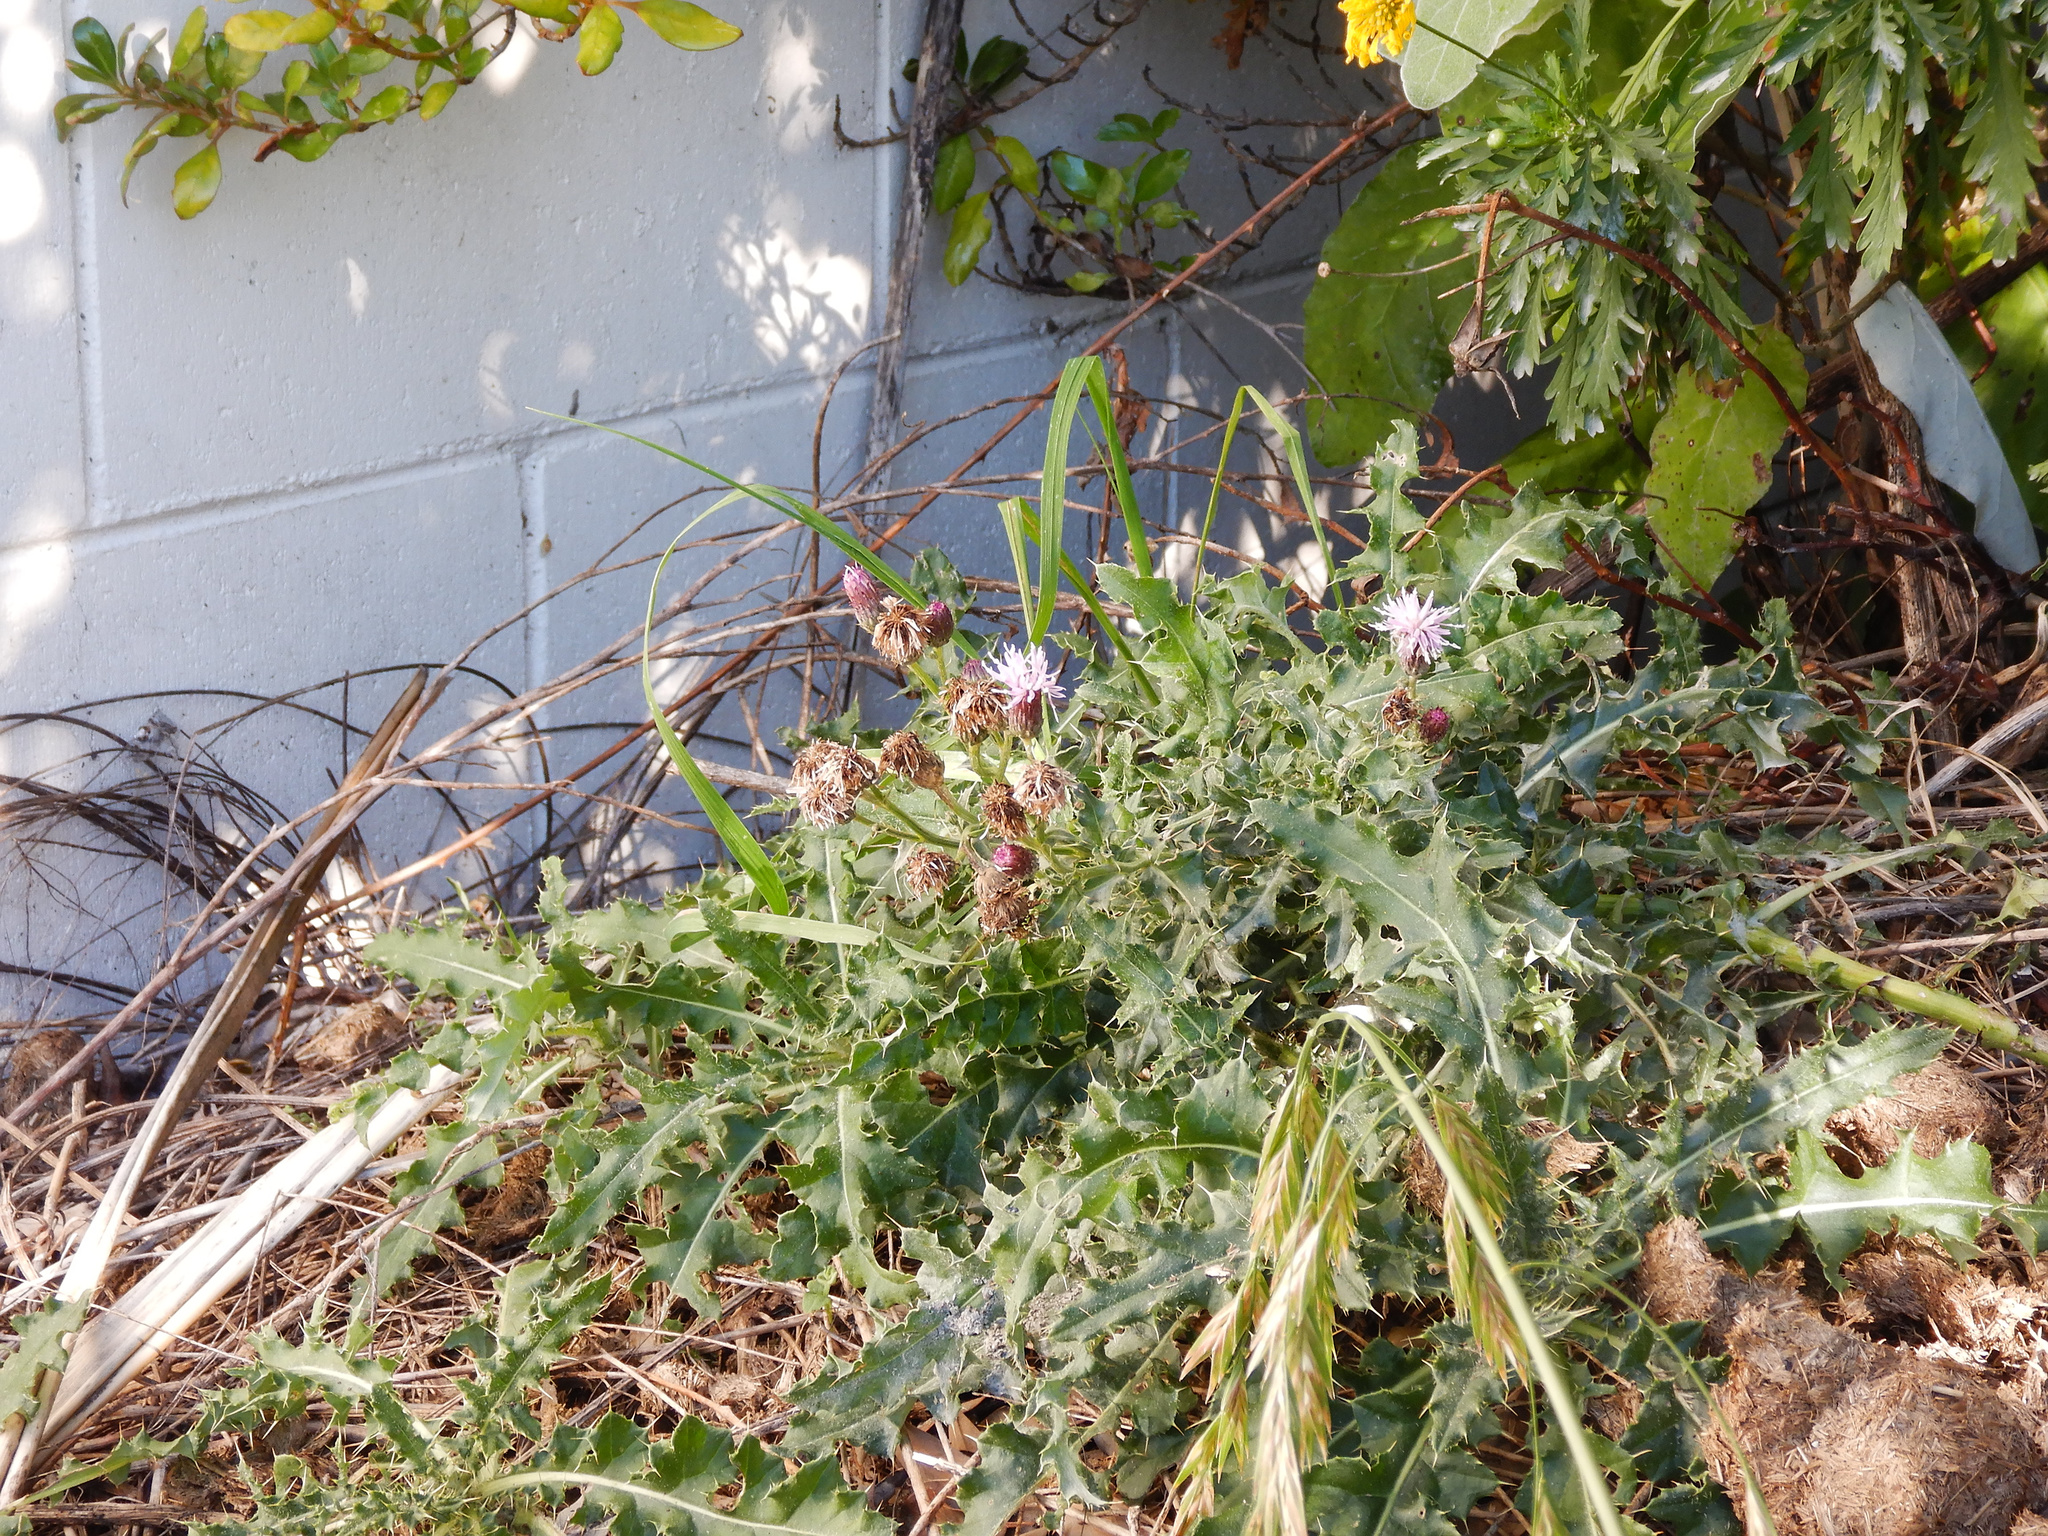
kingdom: Plantae
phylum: Tracheophyta
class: Magnoliopsida
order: Asterales
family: Asteraceae
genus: Cirsium
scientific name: Cirsium arvense
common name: Creeping thistle
